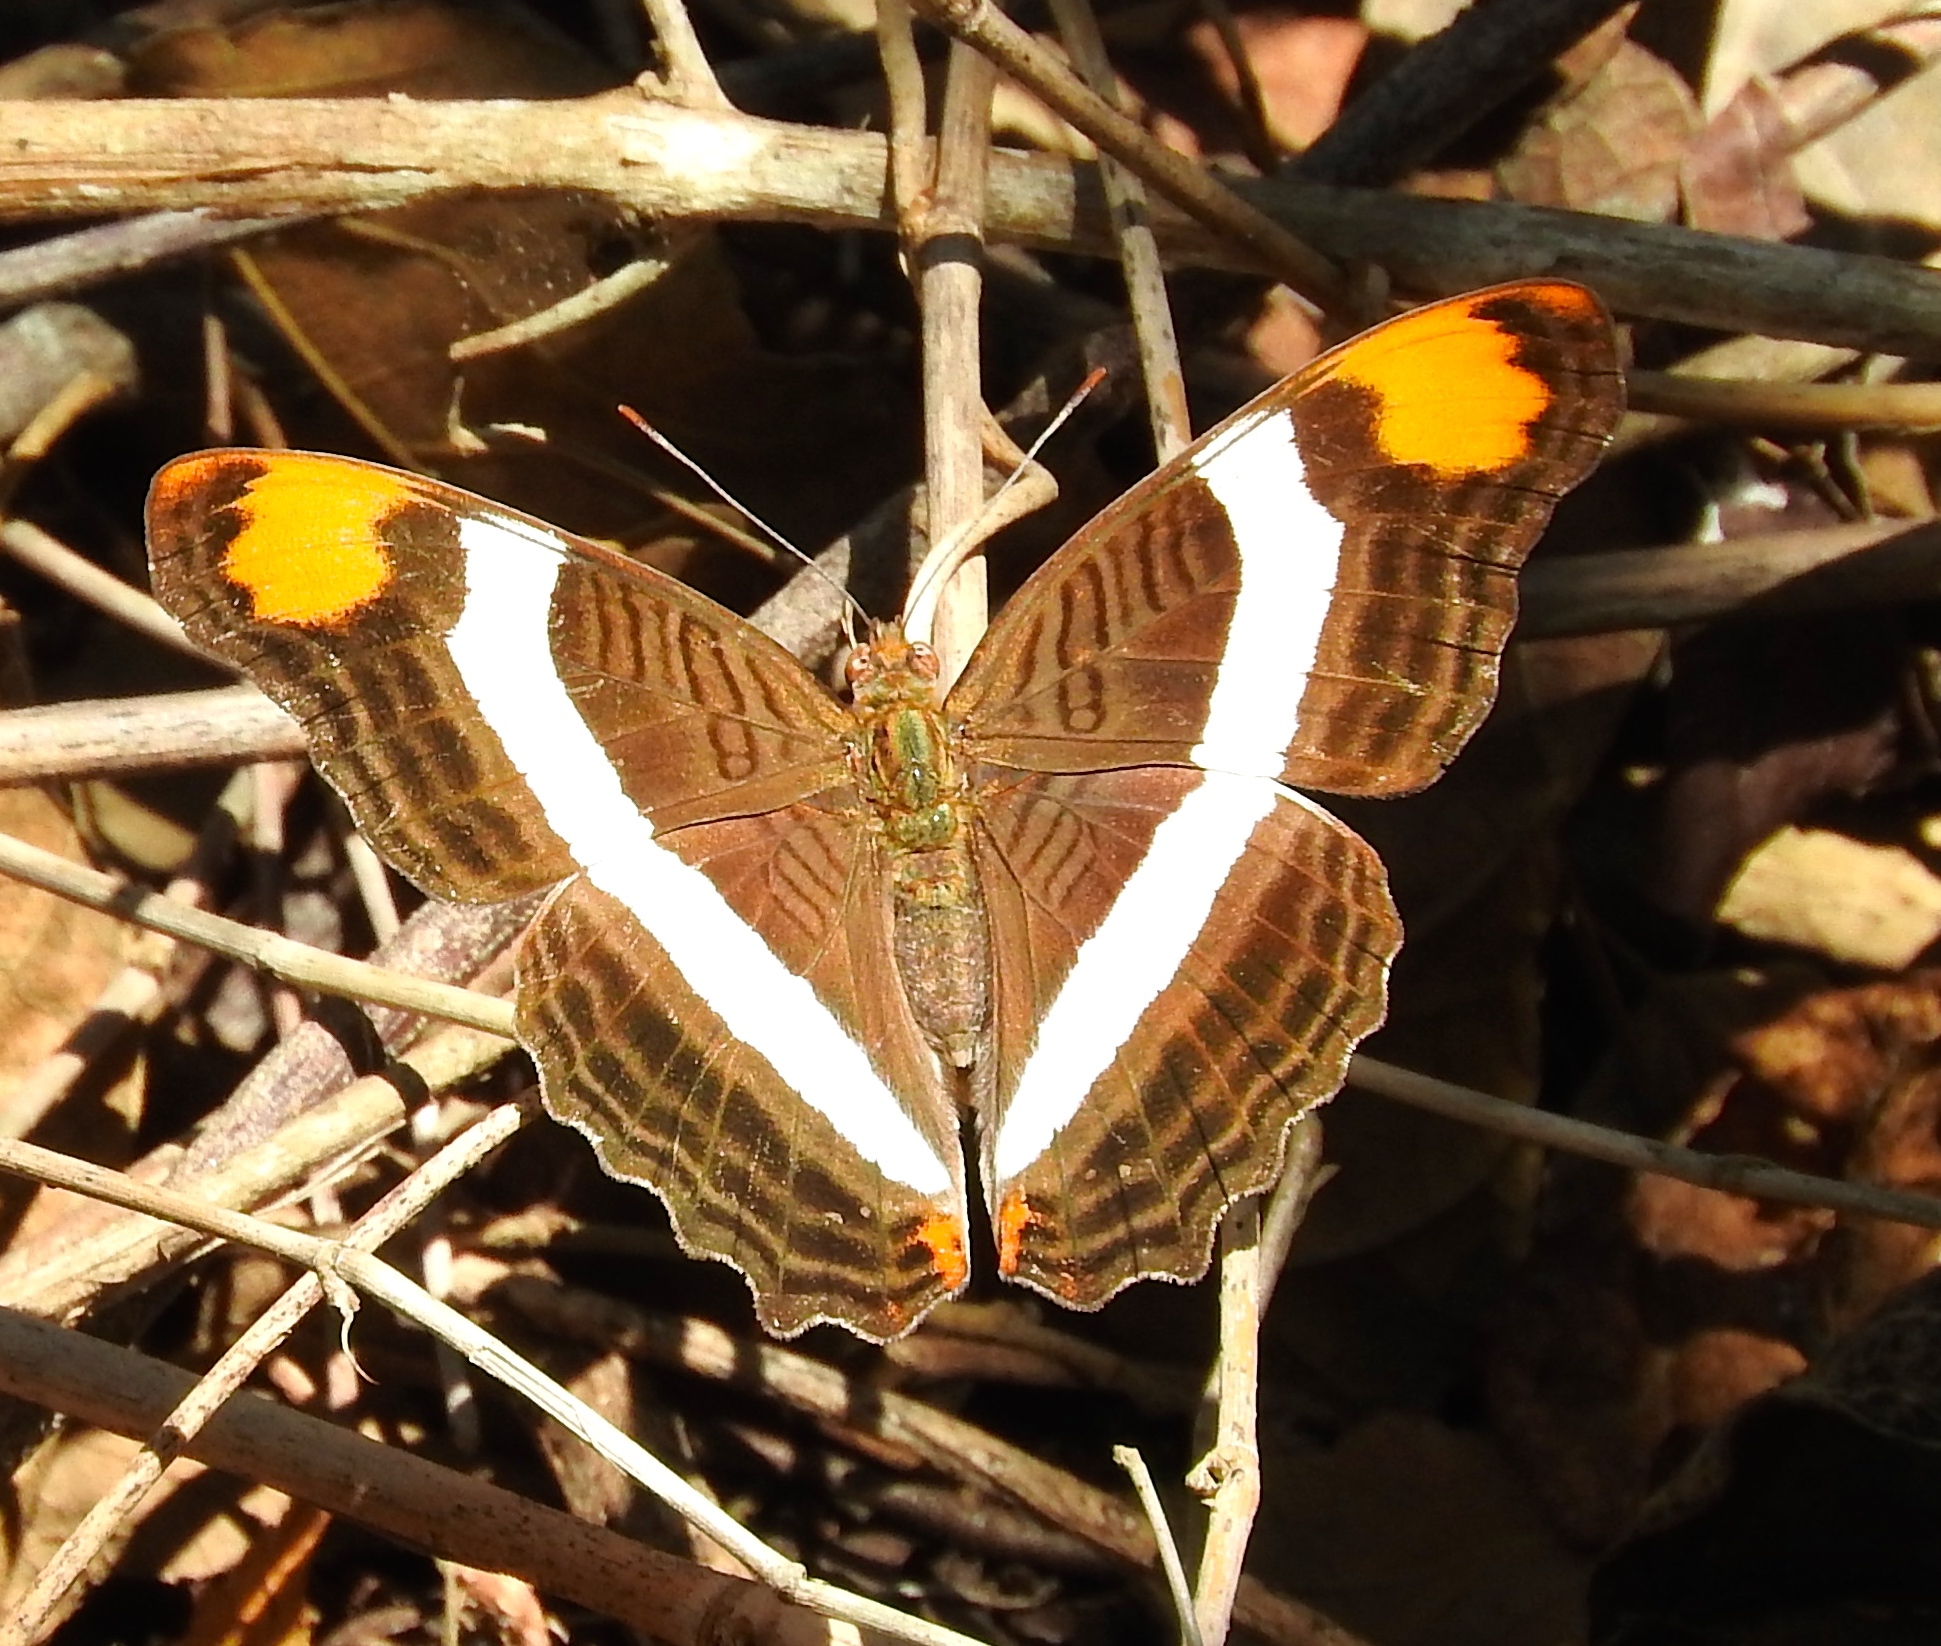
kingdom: Animalia
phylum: Arthropoda
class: Insecta
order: Lepidoptera
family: Nymphalidae
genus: Limenitis
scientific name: Limenitis fessonia
